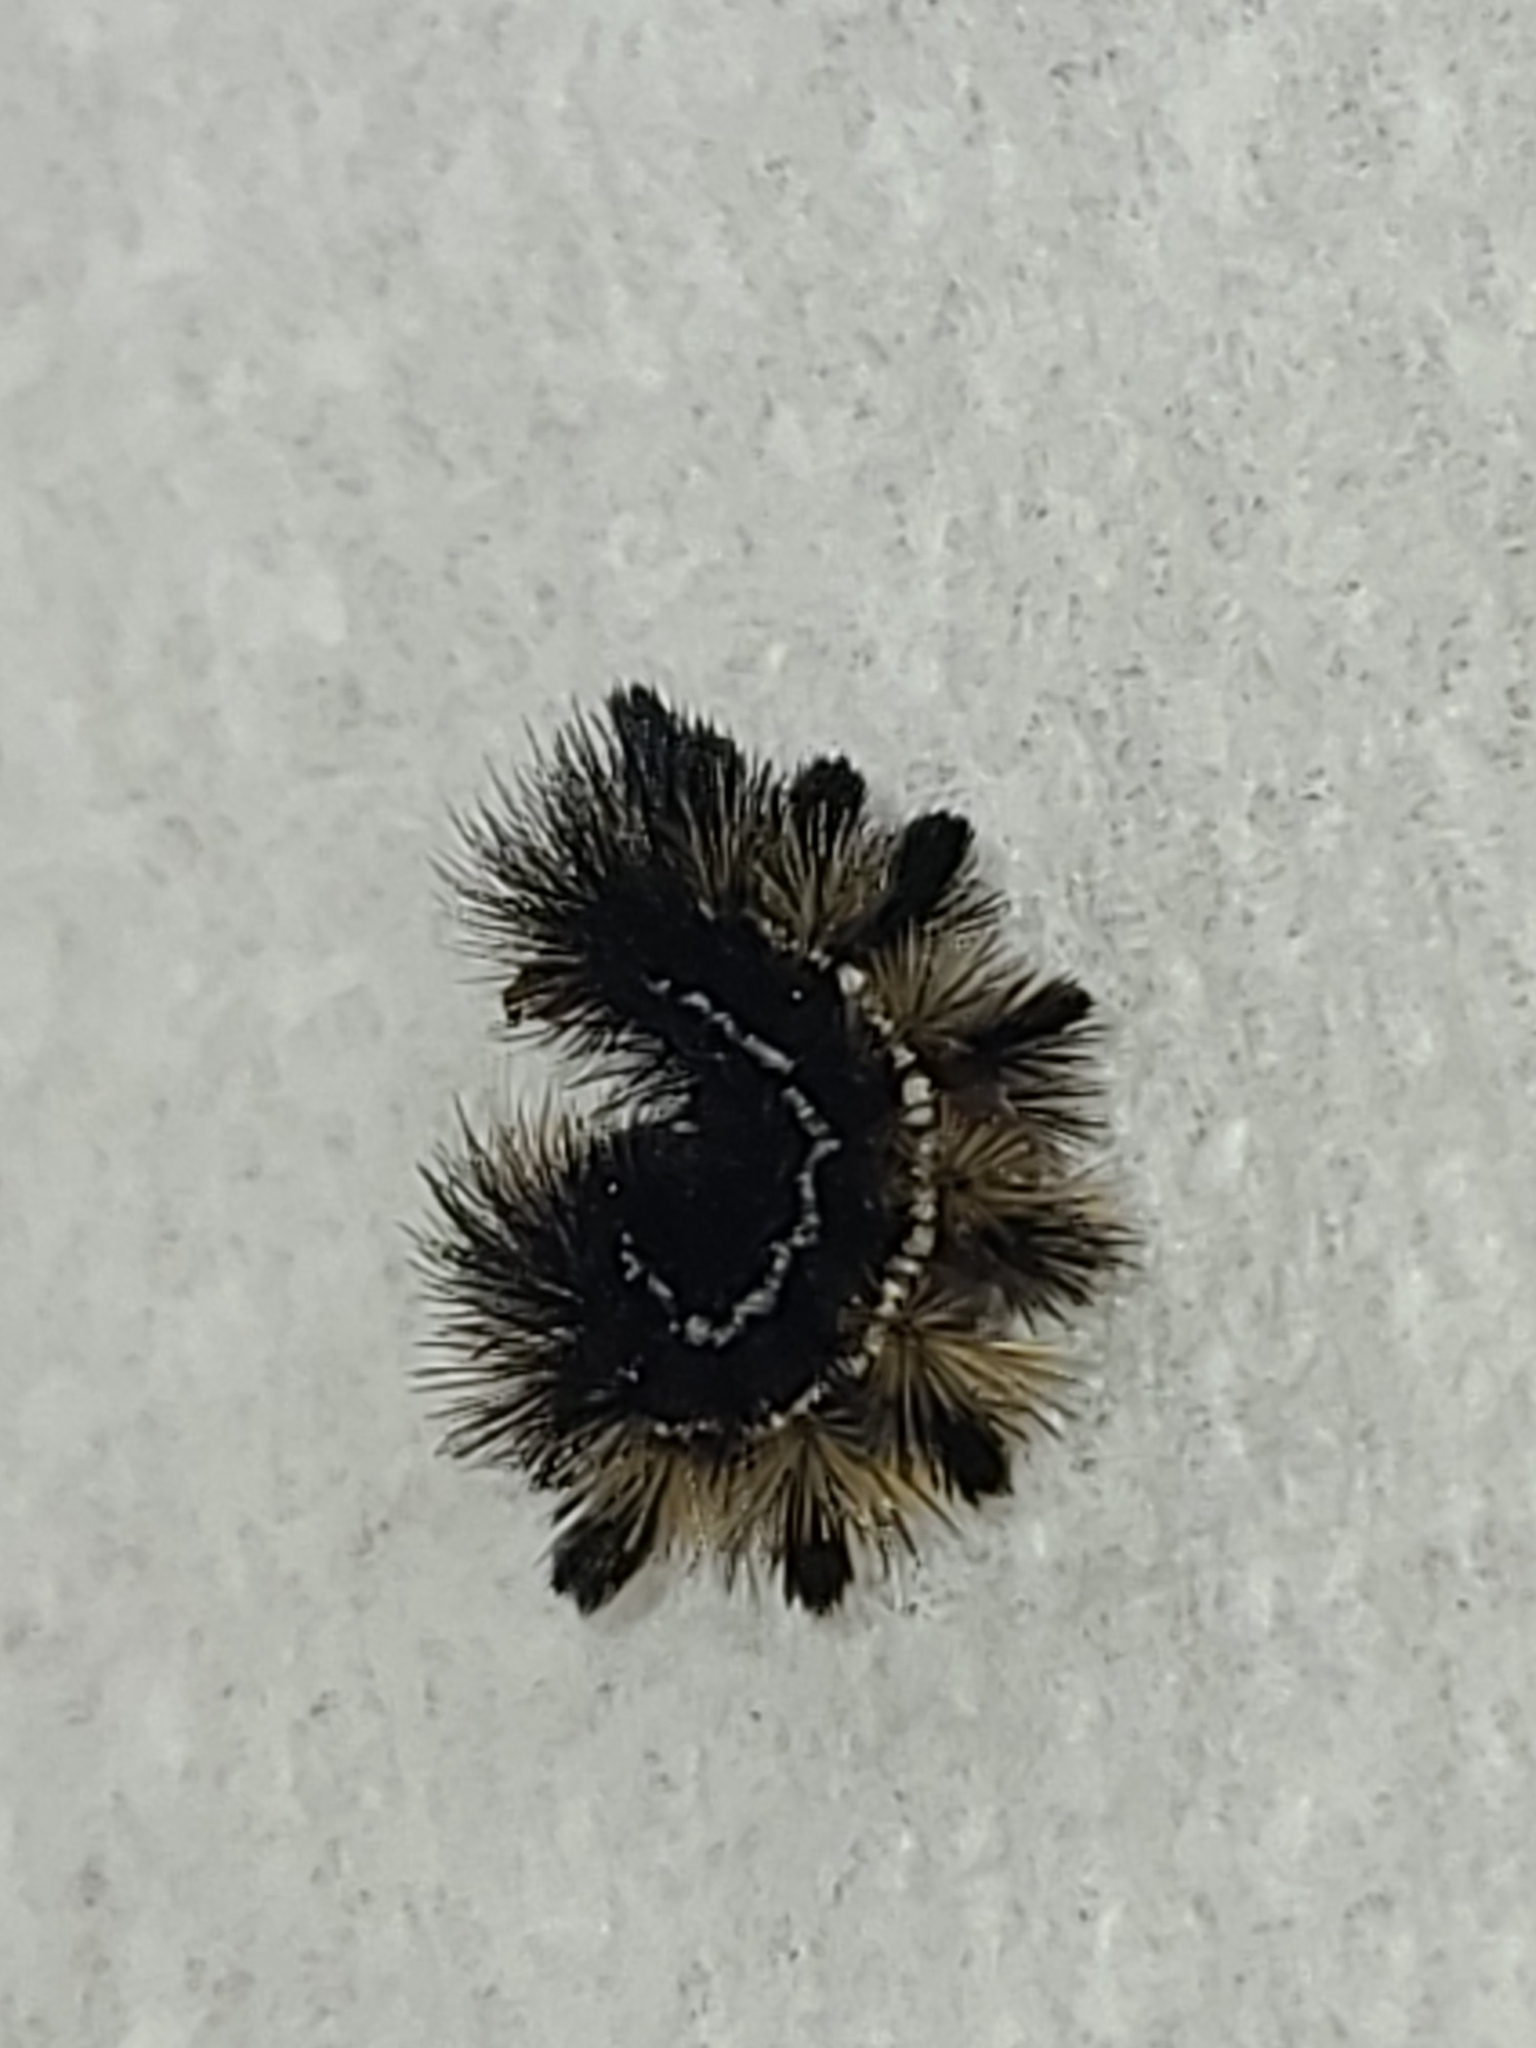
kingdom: Animalia
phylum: Arthropoda
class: Insecta
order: Lepidoptera
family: Erebidae
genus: Ctenucha
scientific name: Ctenucha virginica
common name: Virginia ctenucha moth
